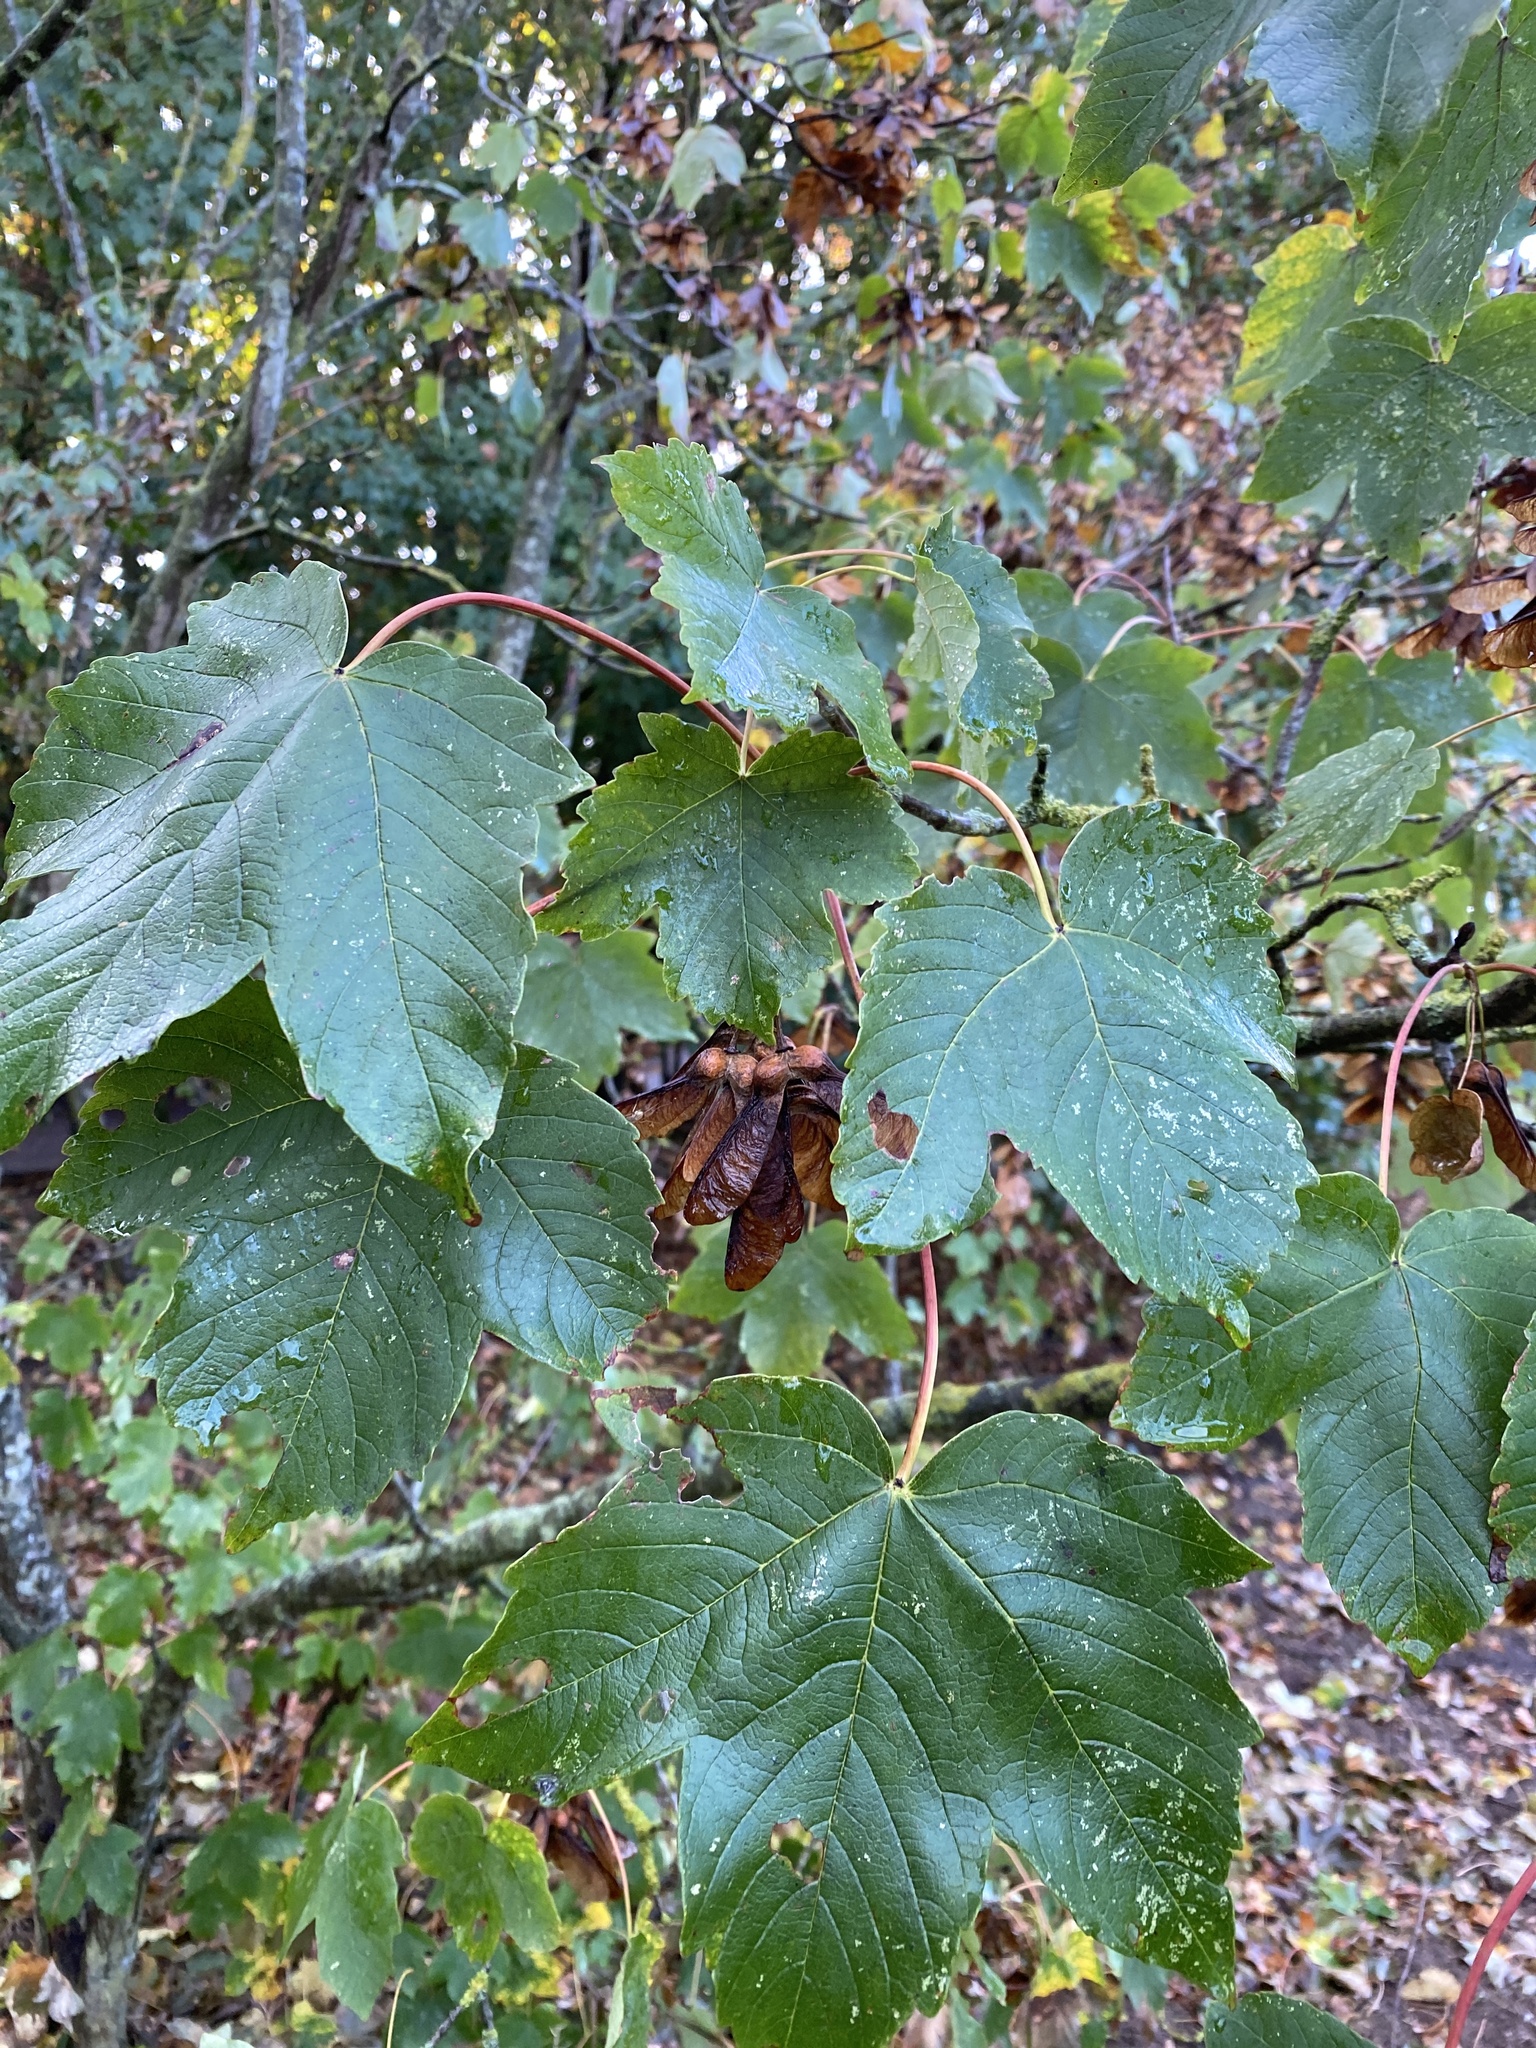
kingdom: Plantae
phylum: Tracheophyta
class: Magnoliopsida
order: Sapindales
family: Sapindaceae
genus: Acer
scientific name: Acer pseudoplatanus
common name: Sycamore
